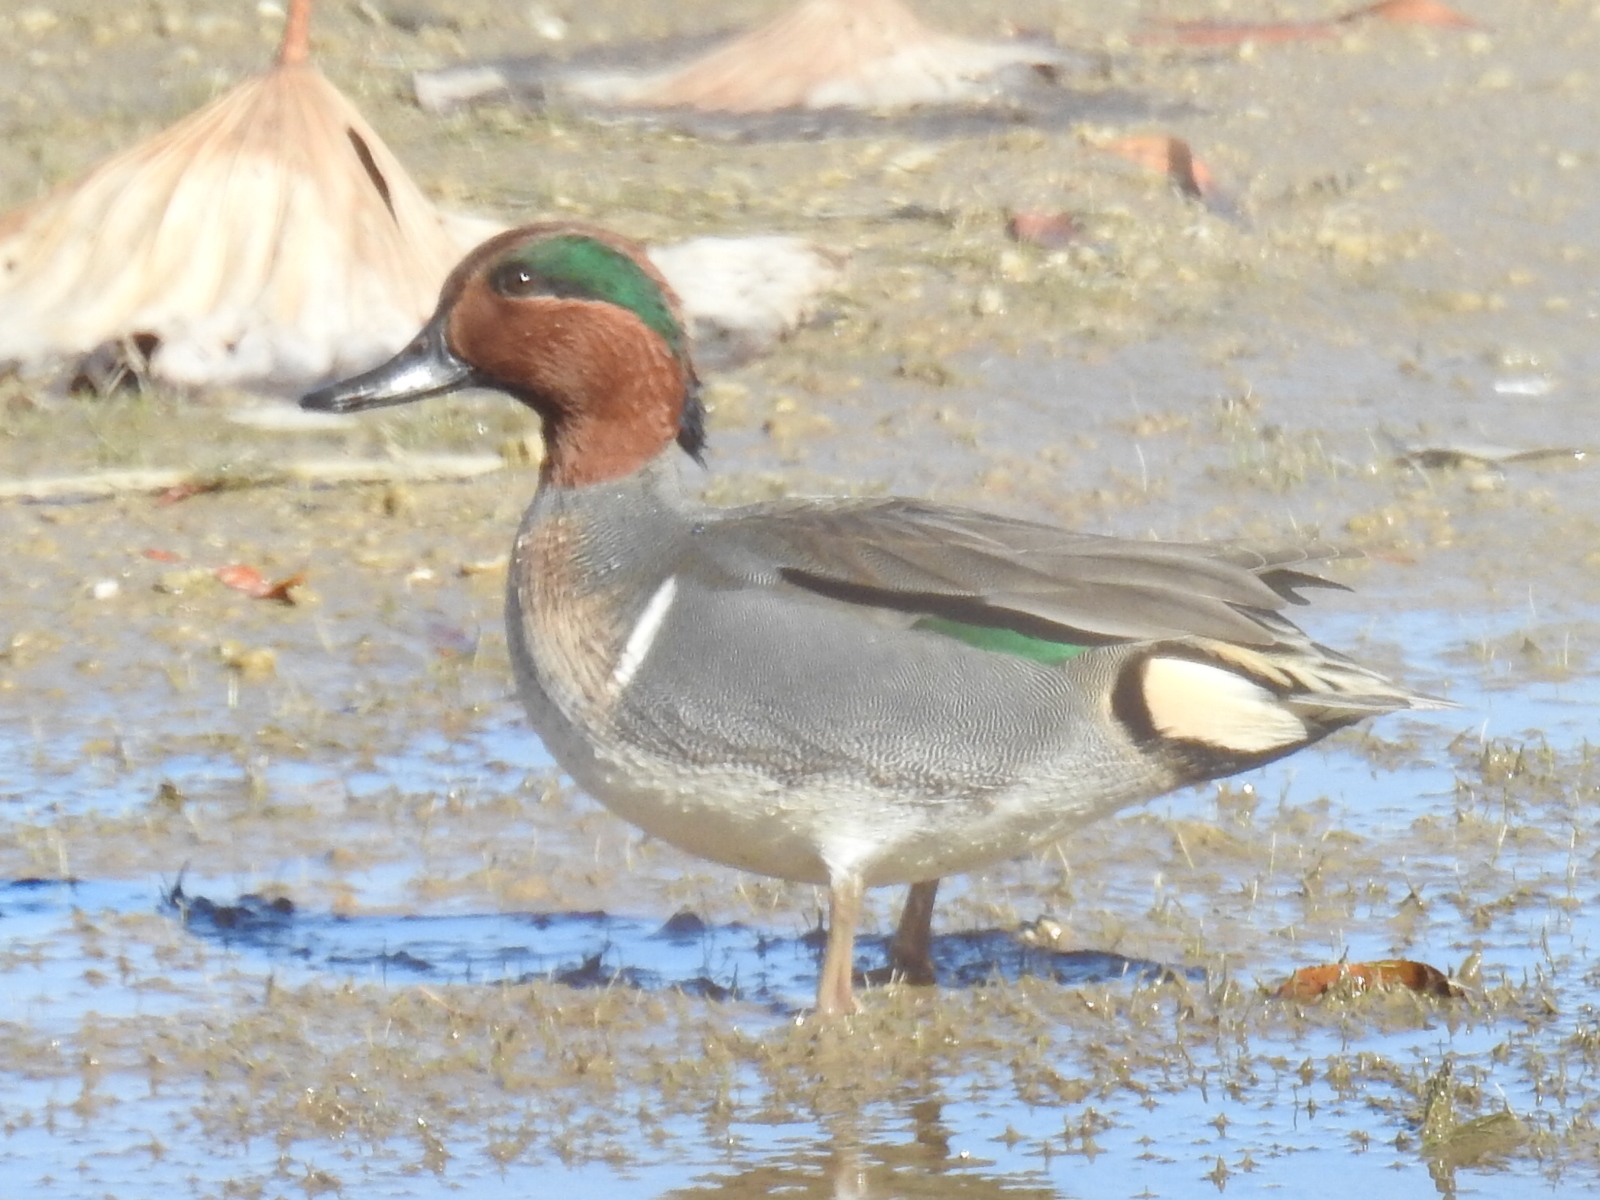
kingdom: Animalia
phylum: Chordata
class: Aves
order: Anseriformes
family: Anatidae
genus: Anas
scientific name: Anas crecca
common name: Eurasian teal
